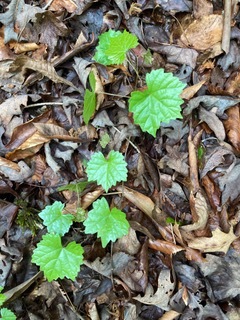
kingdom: Plantae
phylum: Tracheophyta
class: Magnoliopsida
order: Vitales
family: Vitaceae
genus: Vitis
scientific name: Vitis rotundifolia
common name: Muscadine grape
